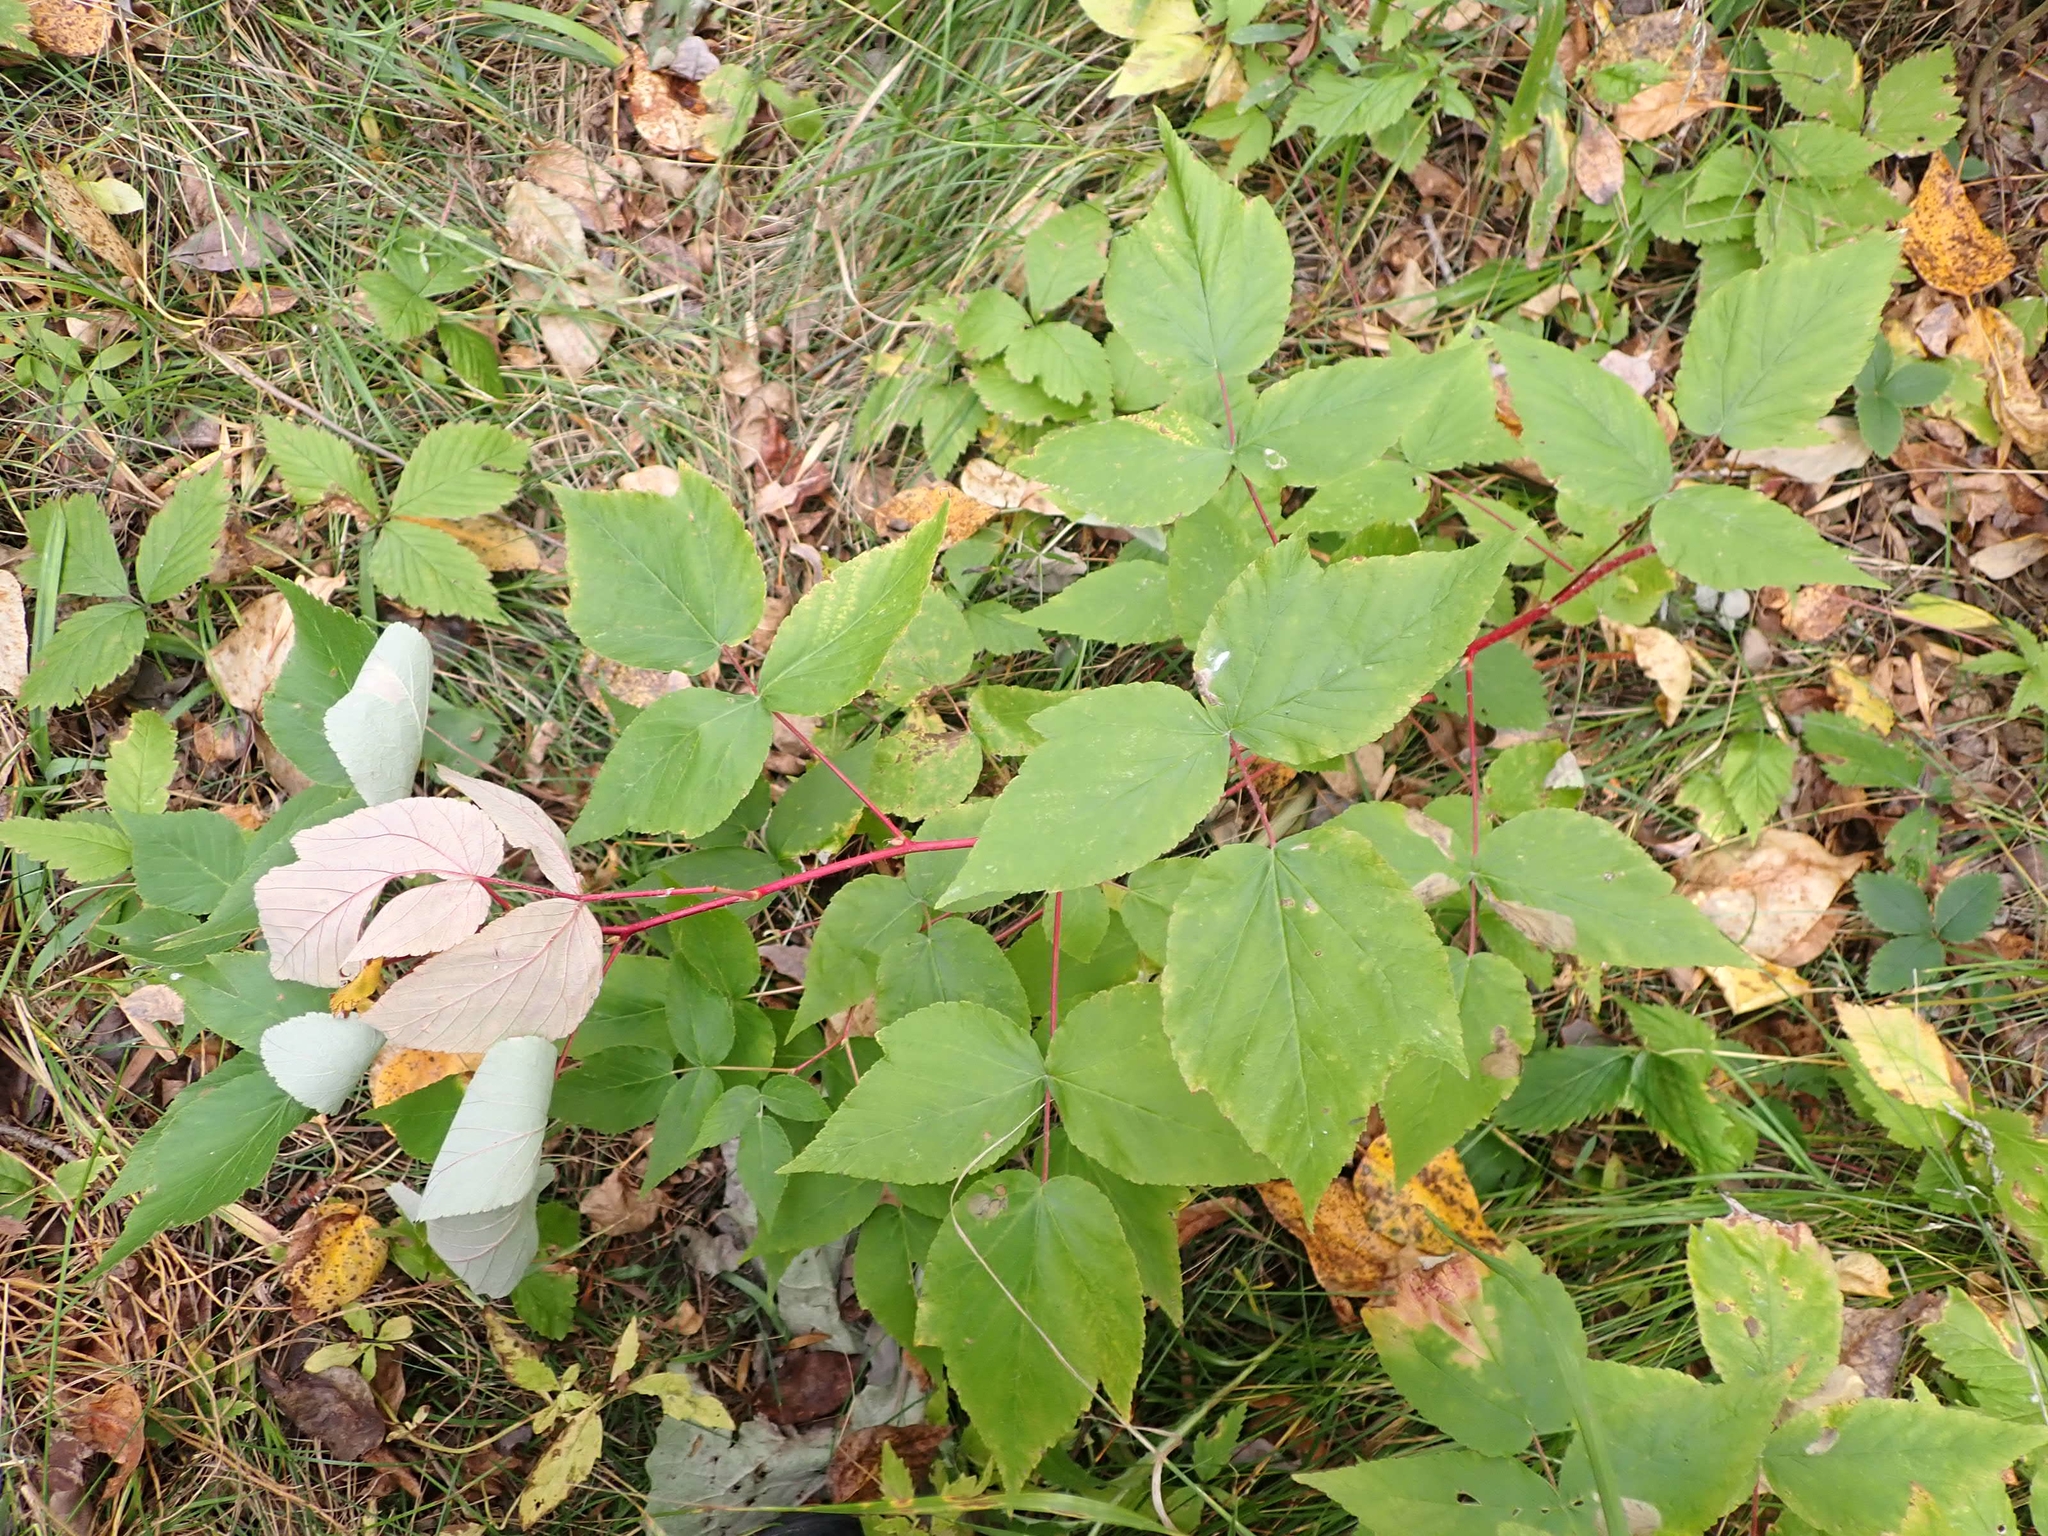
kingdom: Plantae
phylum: Tracheophyta
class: Magnoliopsida
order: Rosales
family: Rosaceae
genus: Rubus
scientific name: Rubus idaeus
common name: Raspberry
